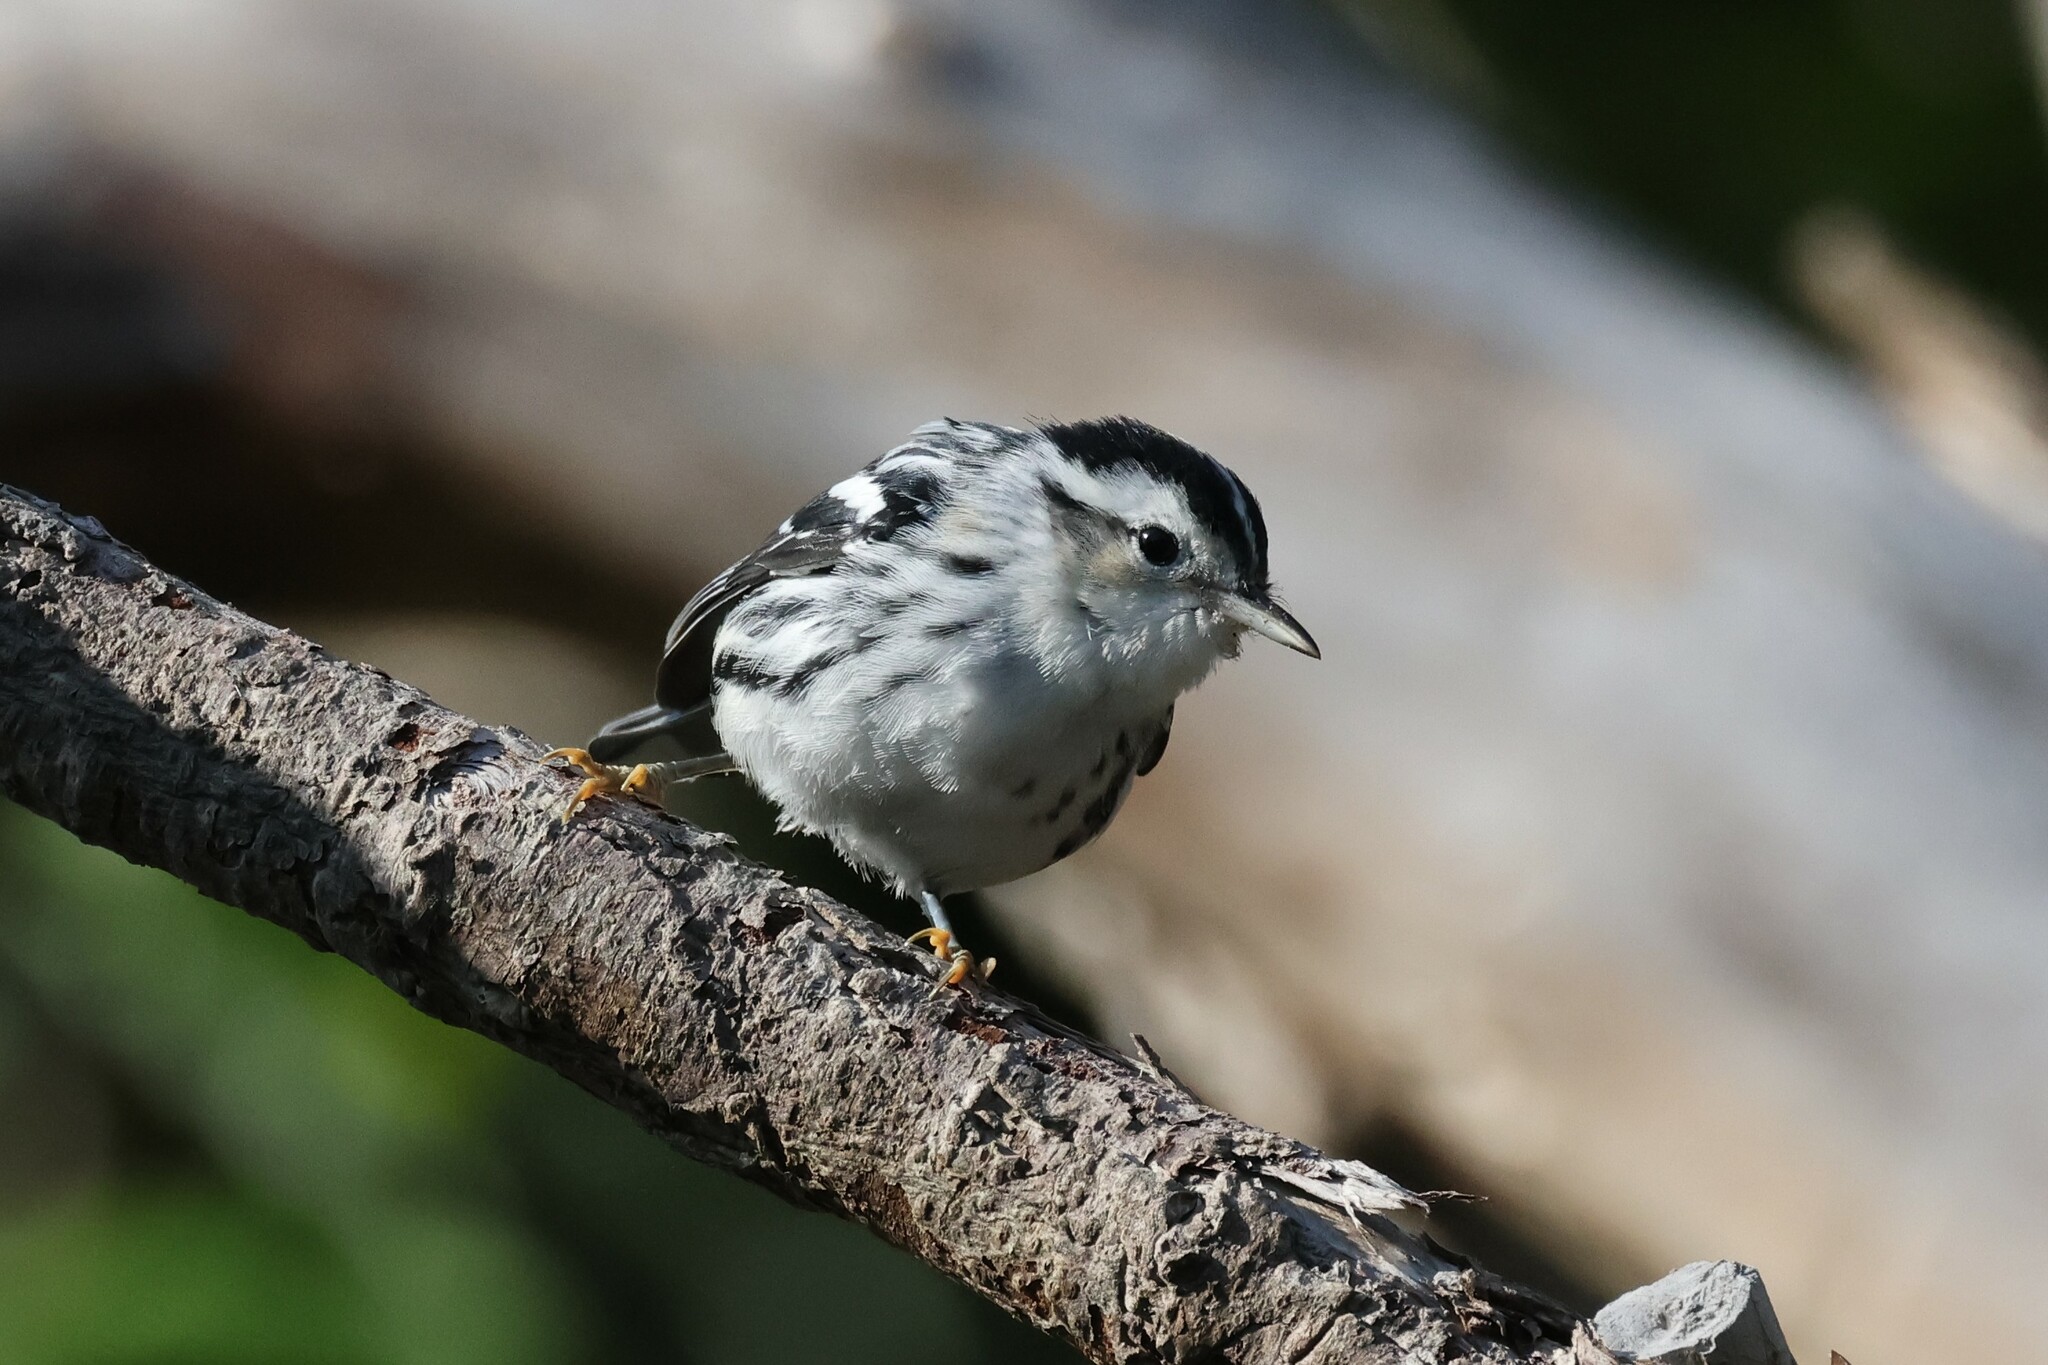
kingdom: Animalia
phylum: Chordata
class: Aves
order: Passeriformes
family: Parulidae
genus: Mniotilta
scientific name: Mniotilta varia
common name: Black-and-white warbler
